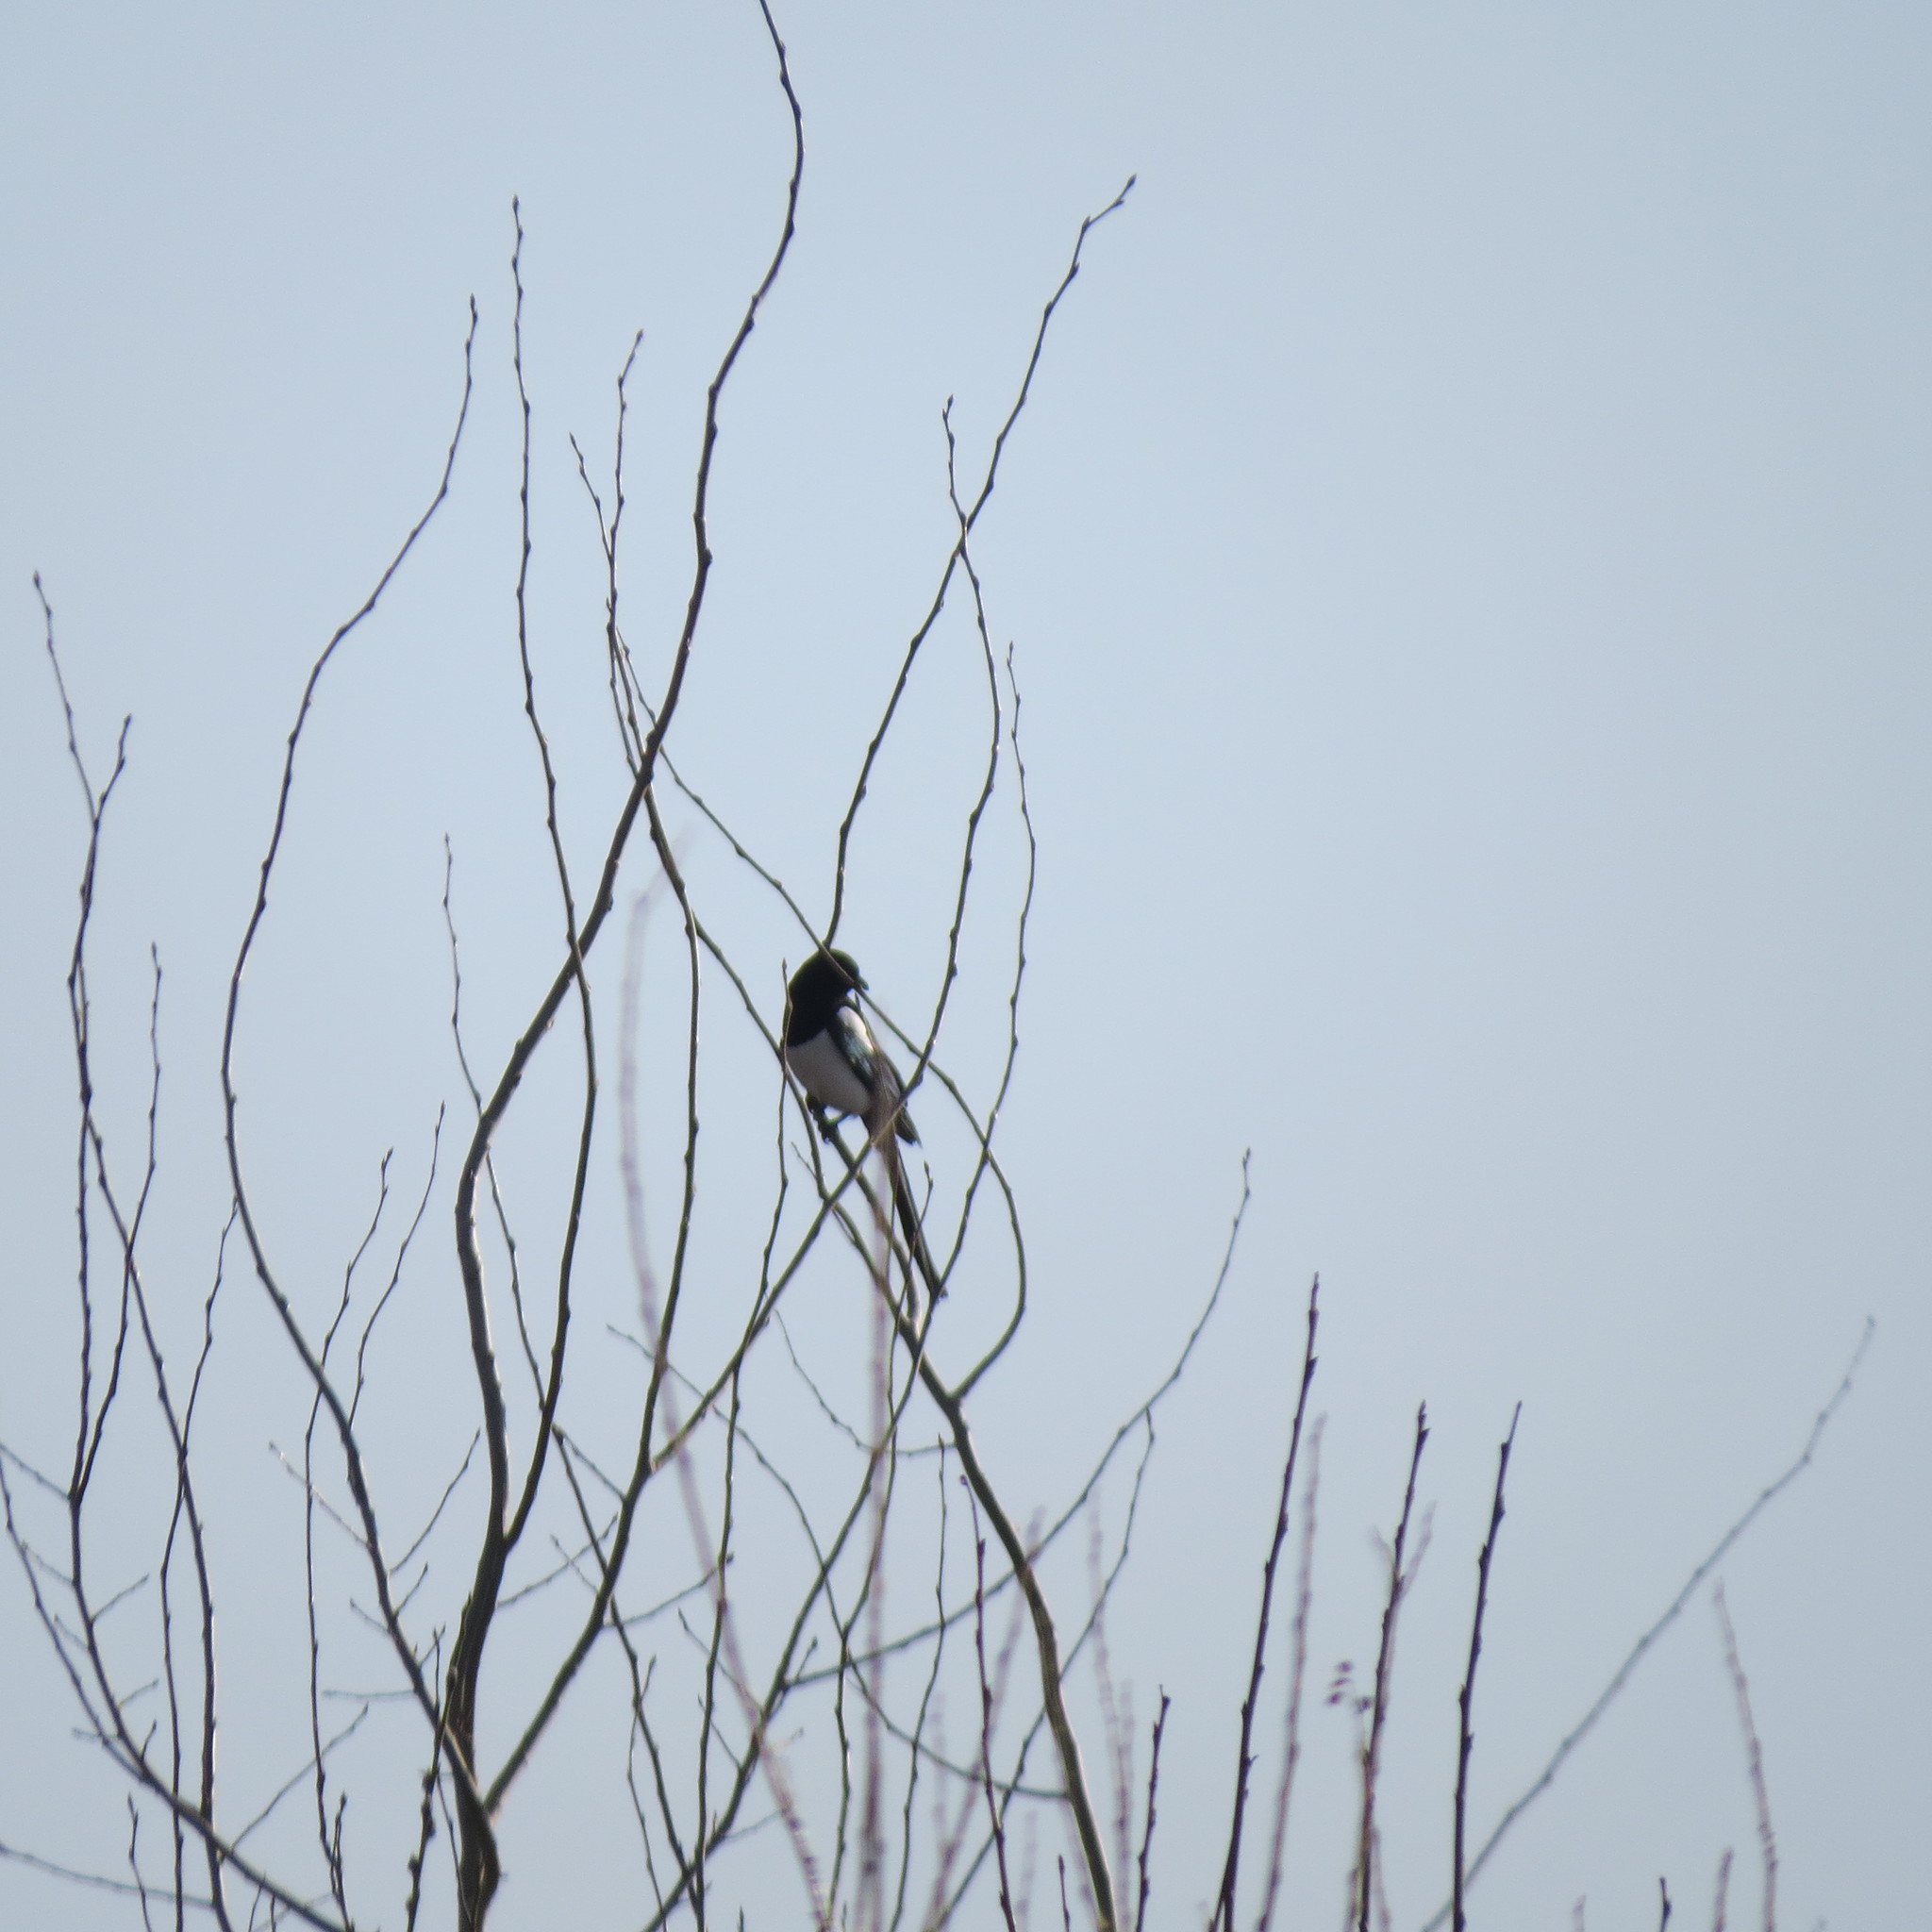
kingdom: Animalia
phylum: Chordata
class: Aves
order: Passeriformes
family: Corvidae
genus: Pica
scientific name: Pica pica
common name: Eurasian magpie
